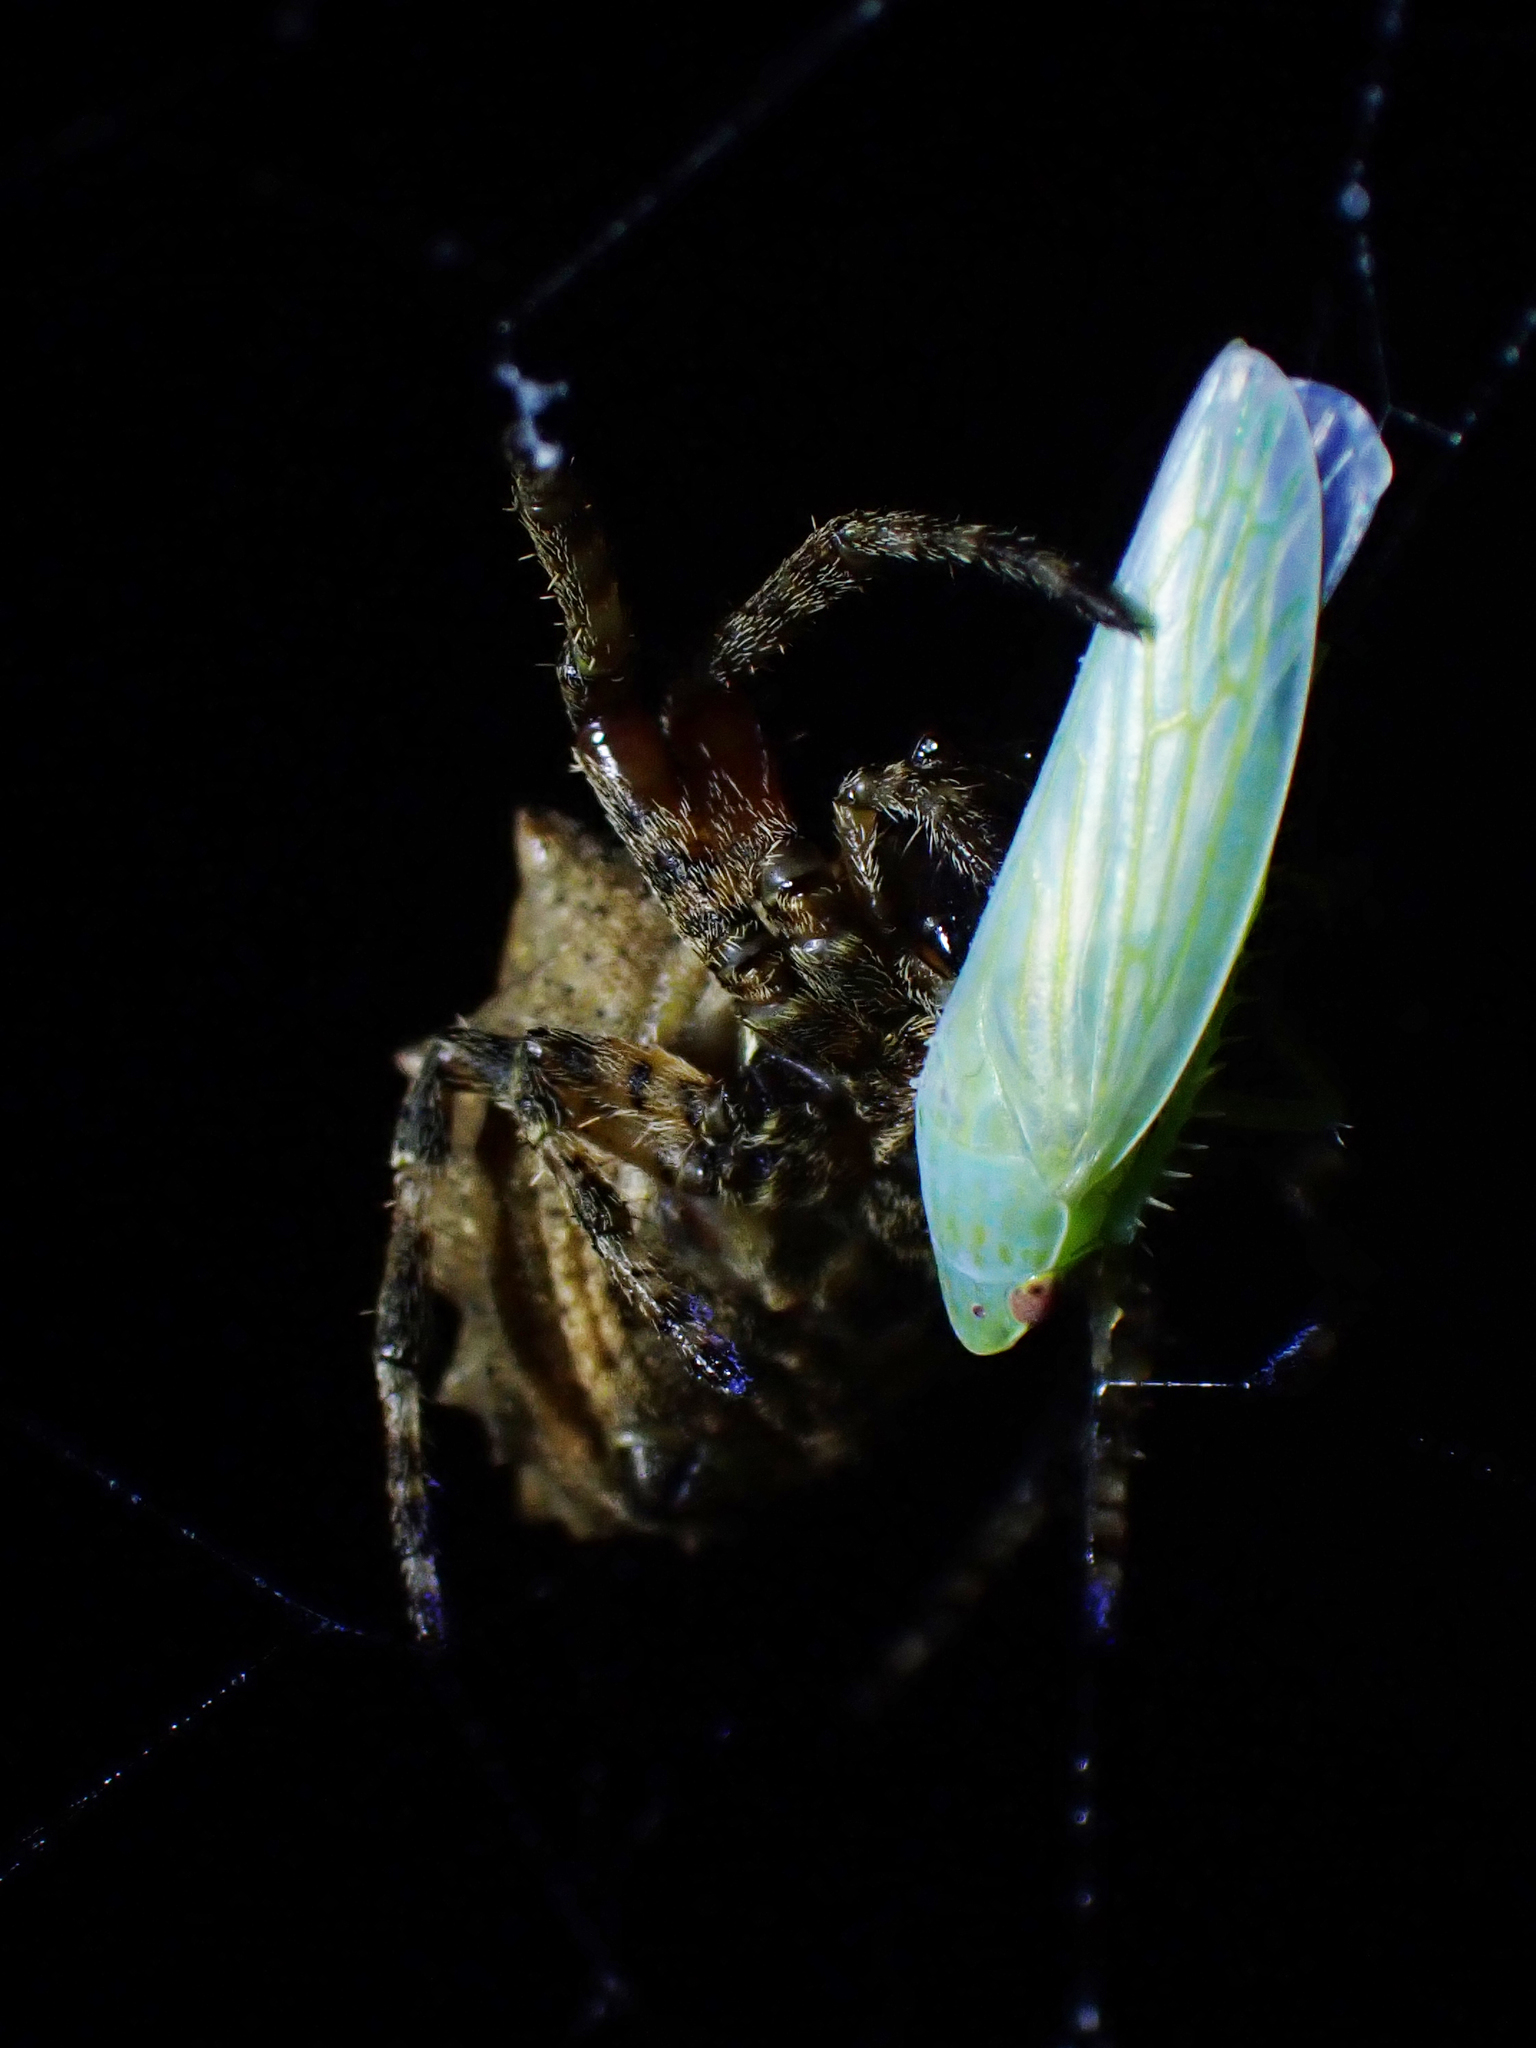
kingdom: Animalia
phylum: Arthropoda
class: Arachnida
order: Araneae
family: Araneidae
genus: Acanthepeira
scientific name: Acanthepeira stellata
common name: Starbellied orbweaver
